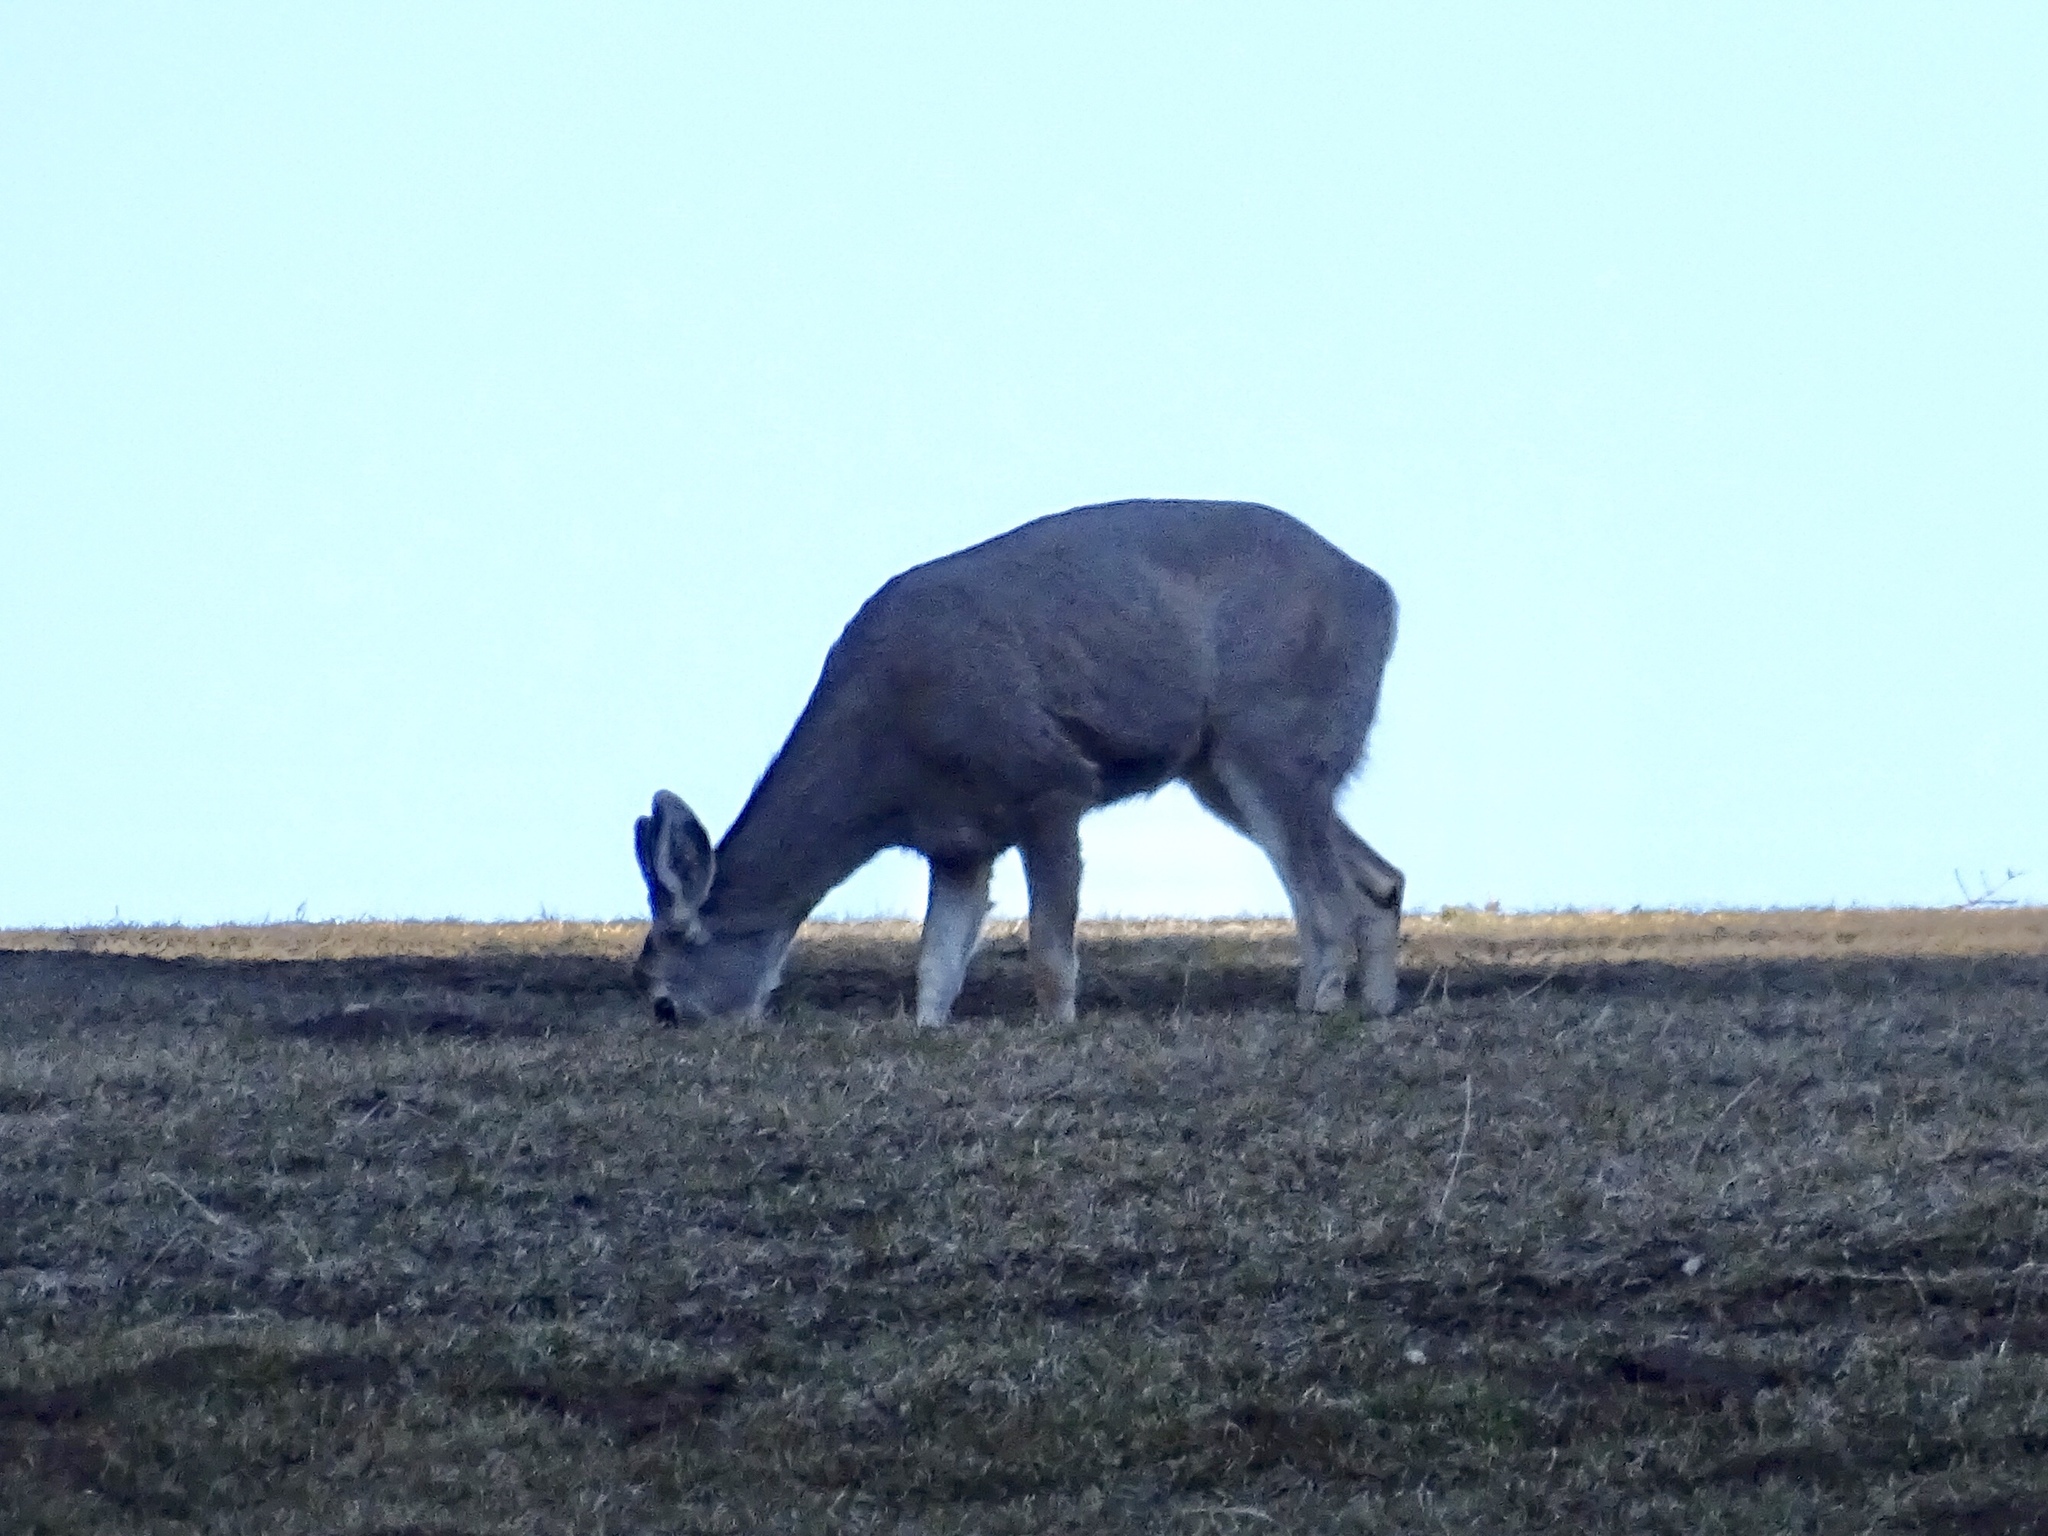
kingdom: Animalia
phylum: Chordata
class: Mammalia
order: Artiodactyla
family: Cervidae
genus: Odocoileus
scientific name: Odocoileus hemionus
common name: Mule deer
